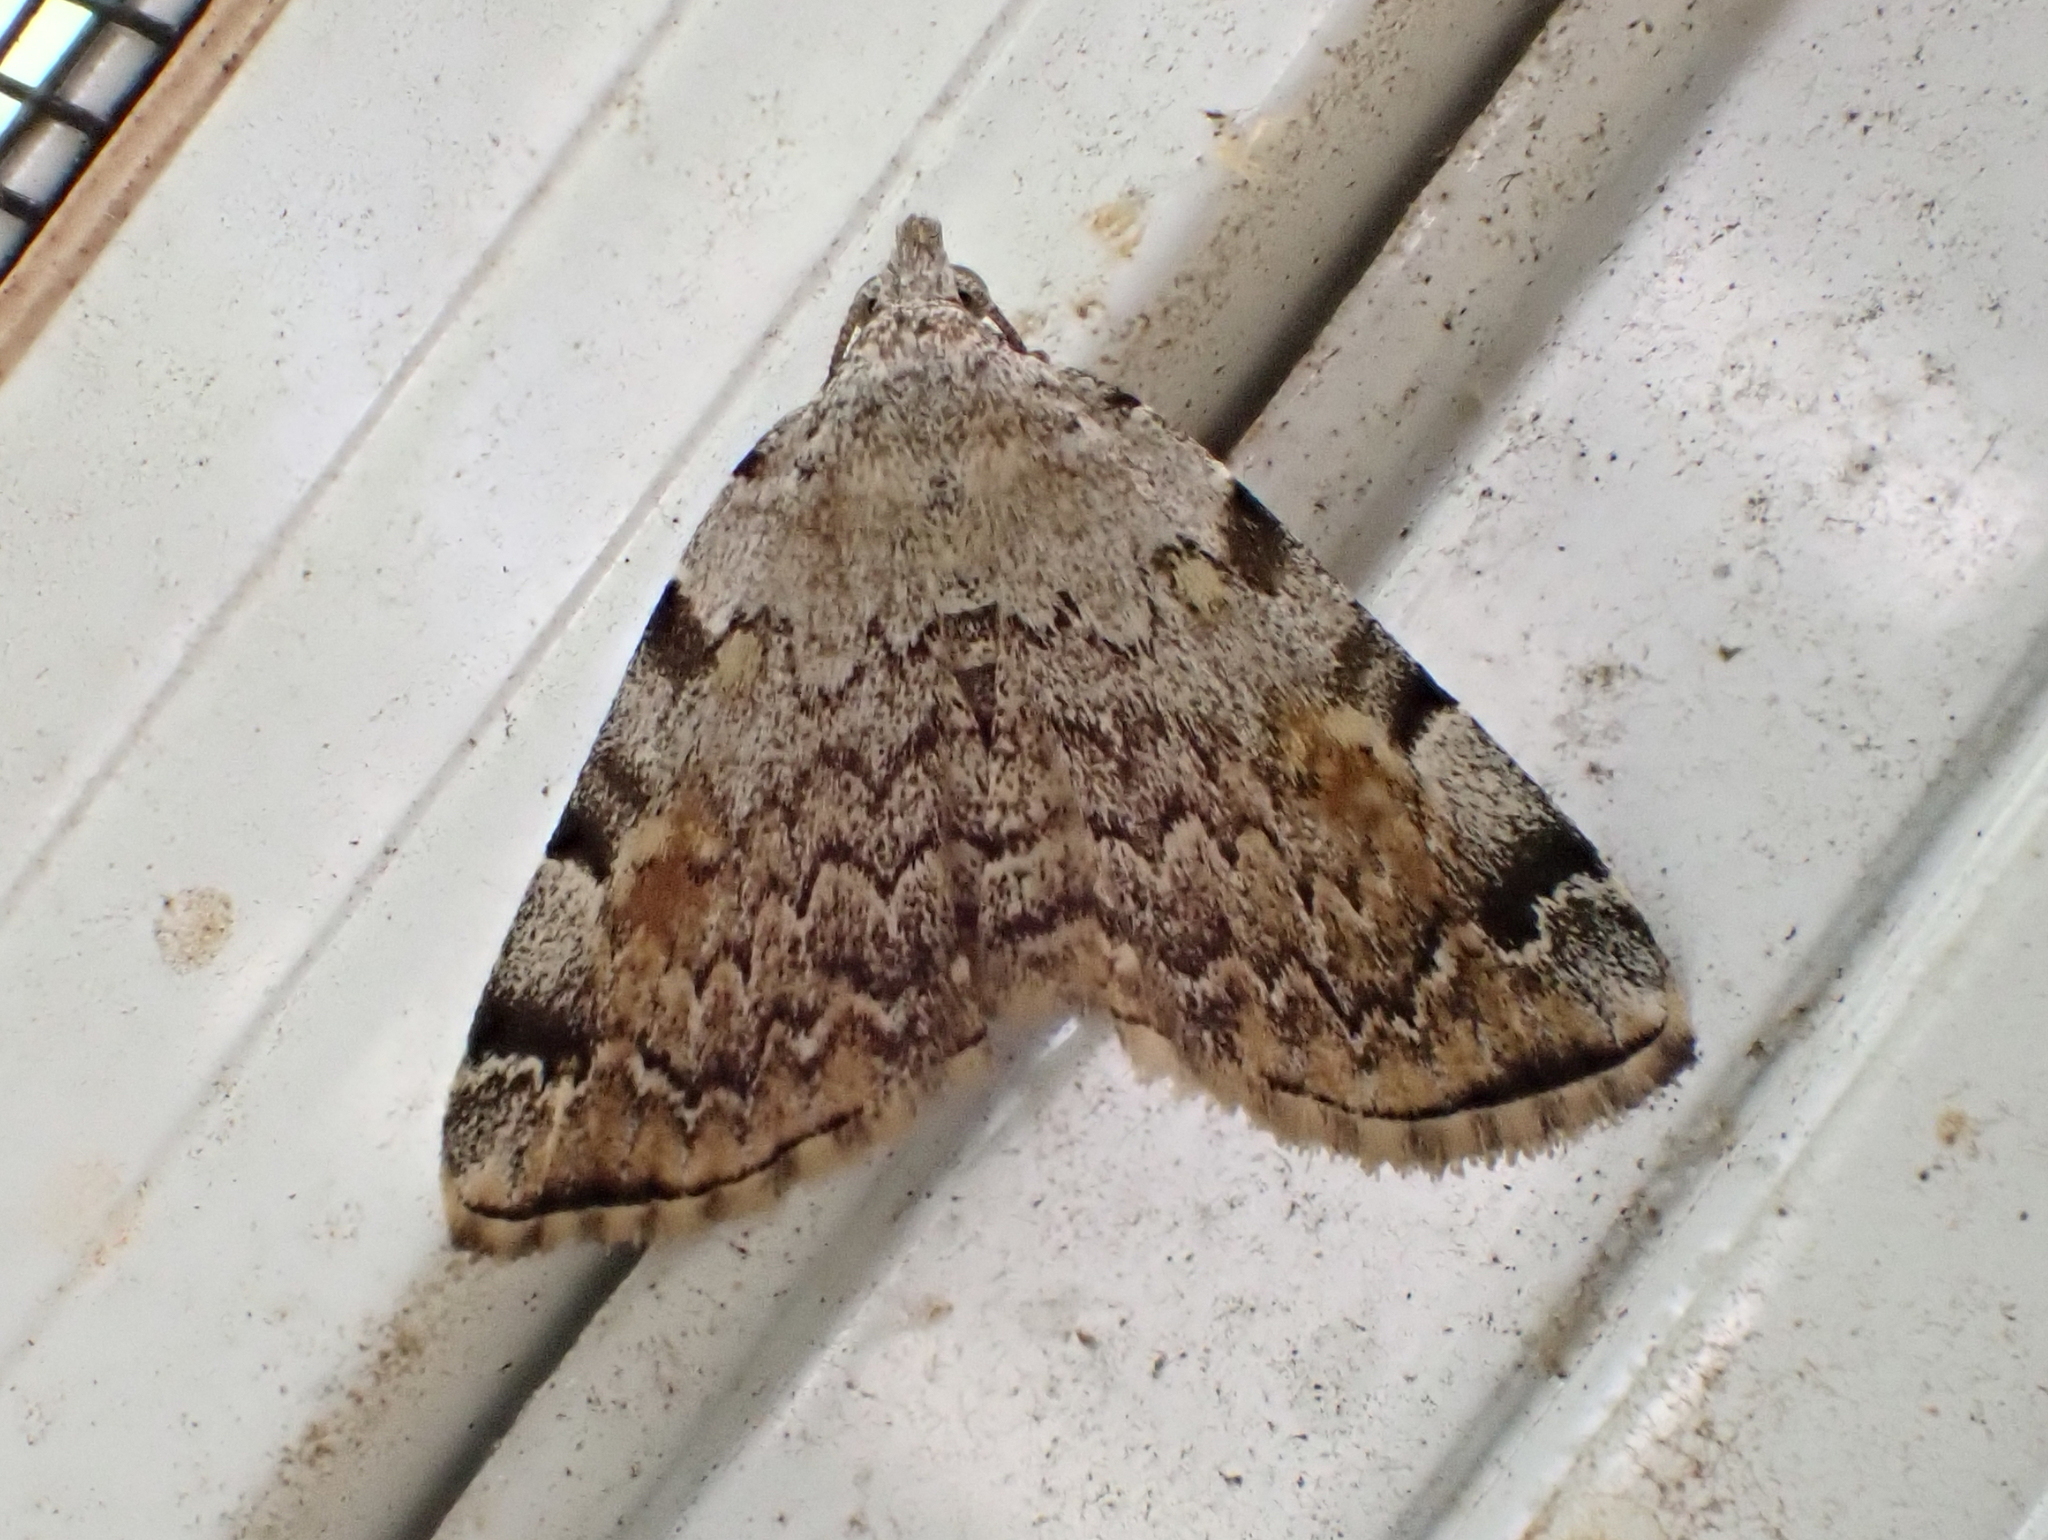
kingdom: Animalia
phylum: Arthropoda
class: Insecta
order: Lepidoptera
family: Erebidae
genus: Idia
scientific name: Idia americalis
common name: American idia moth
